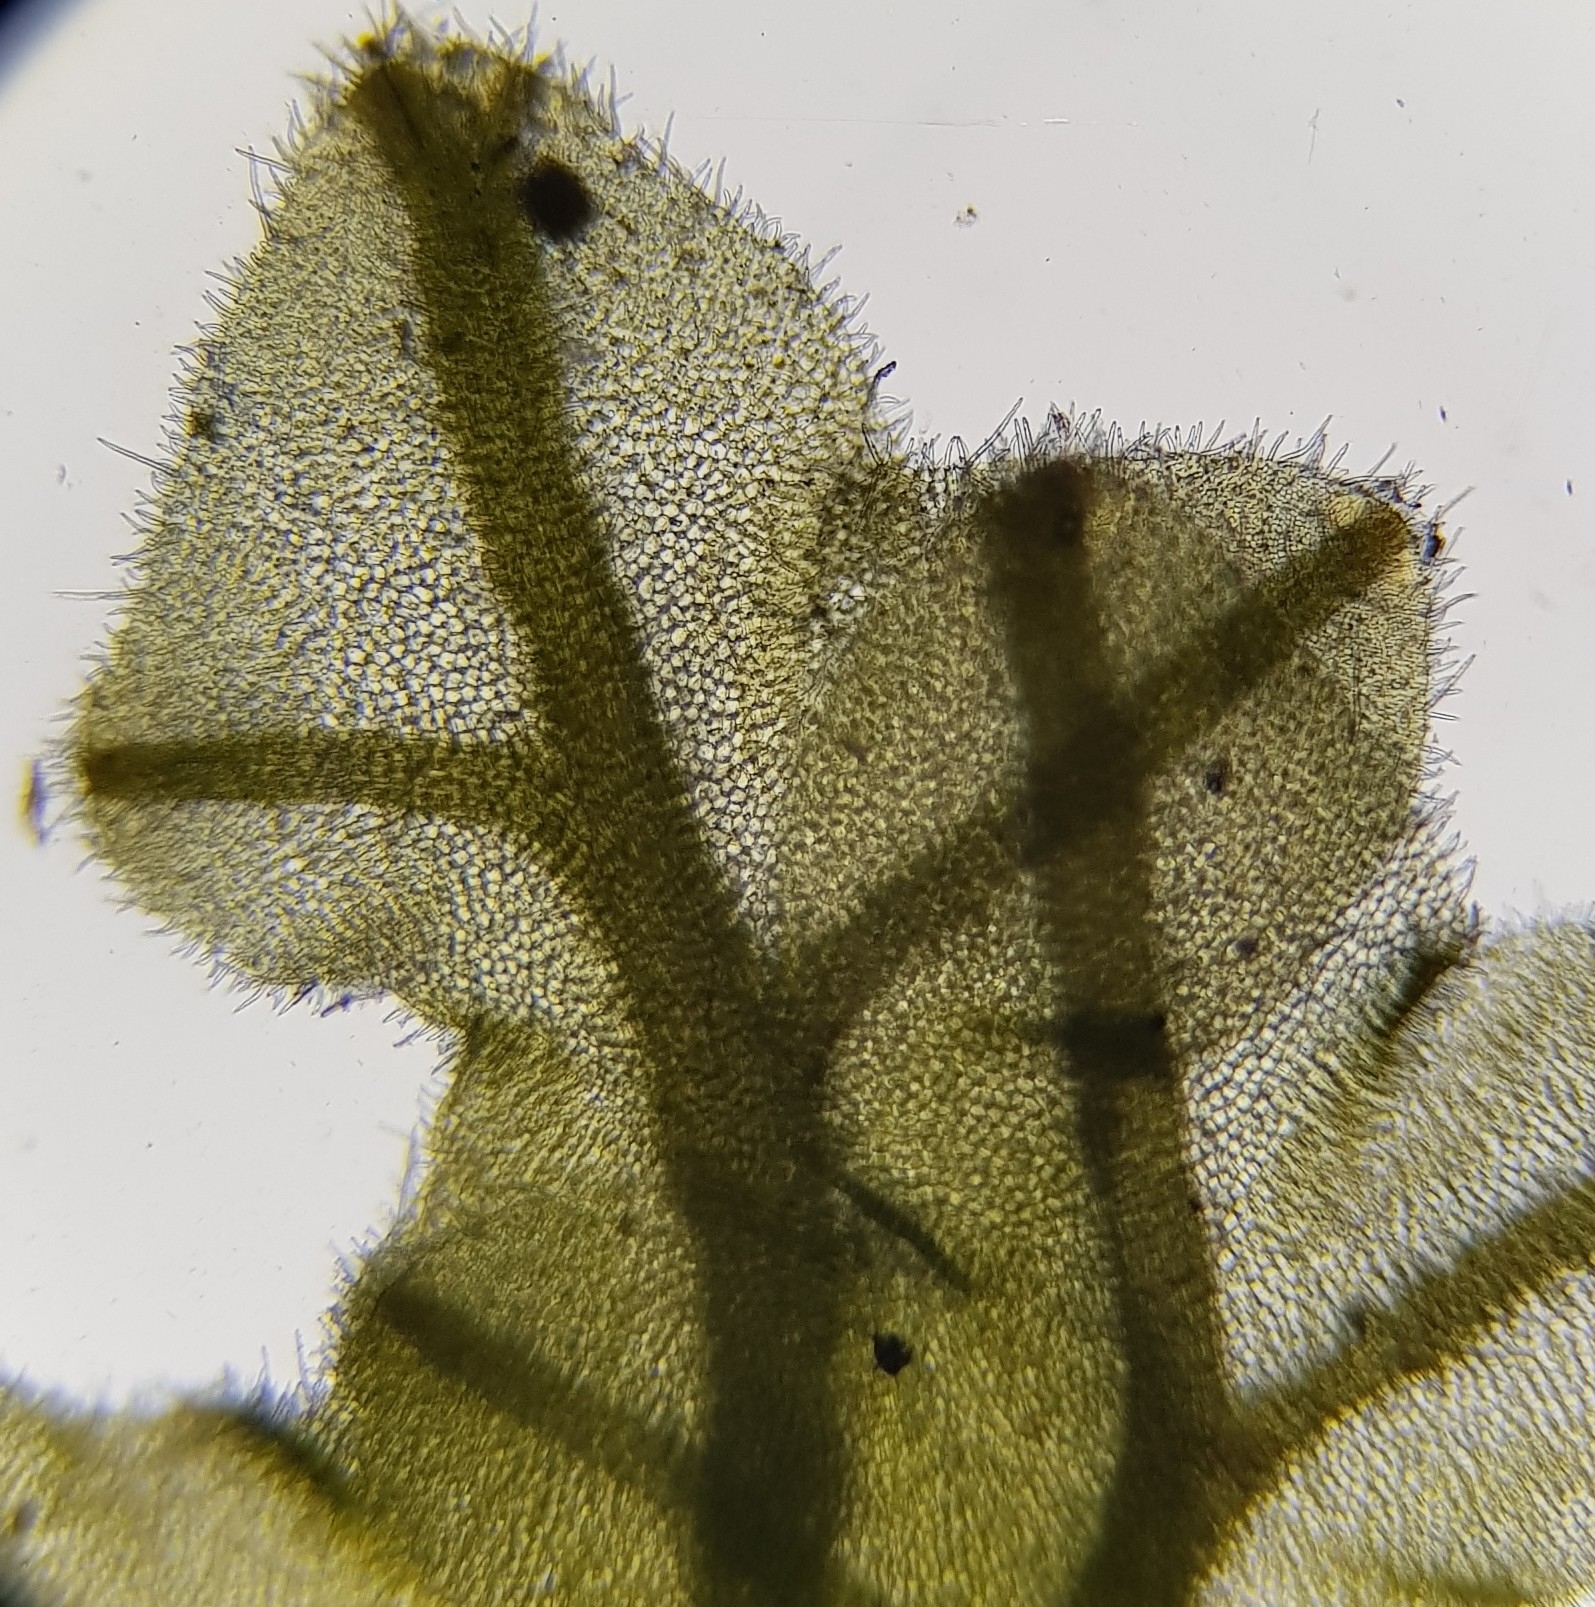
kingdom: Plantae
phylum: Marchantiophyta
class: Jungermanniopsida
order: Metzgeriales
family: Metzgeriaceae
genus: Metzgeria
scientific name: Metzgeria pubescens
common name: Downy veilwort
